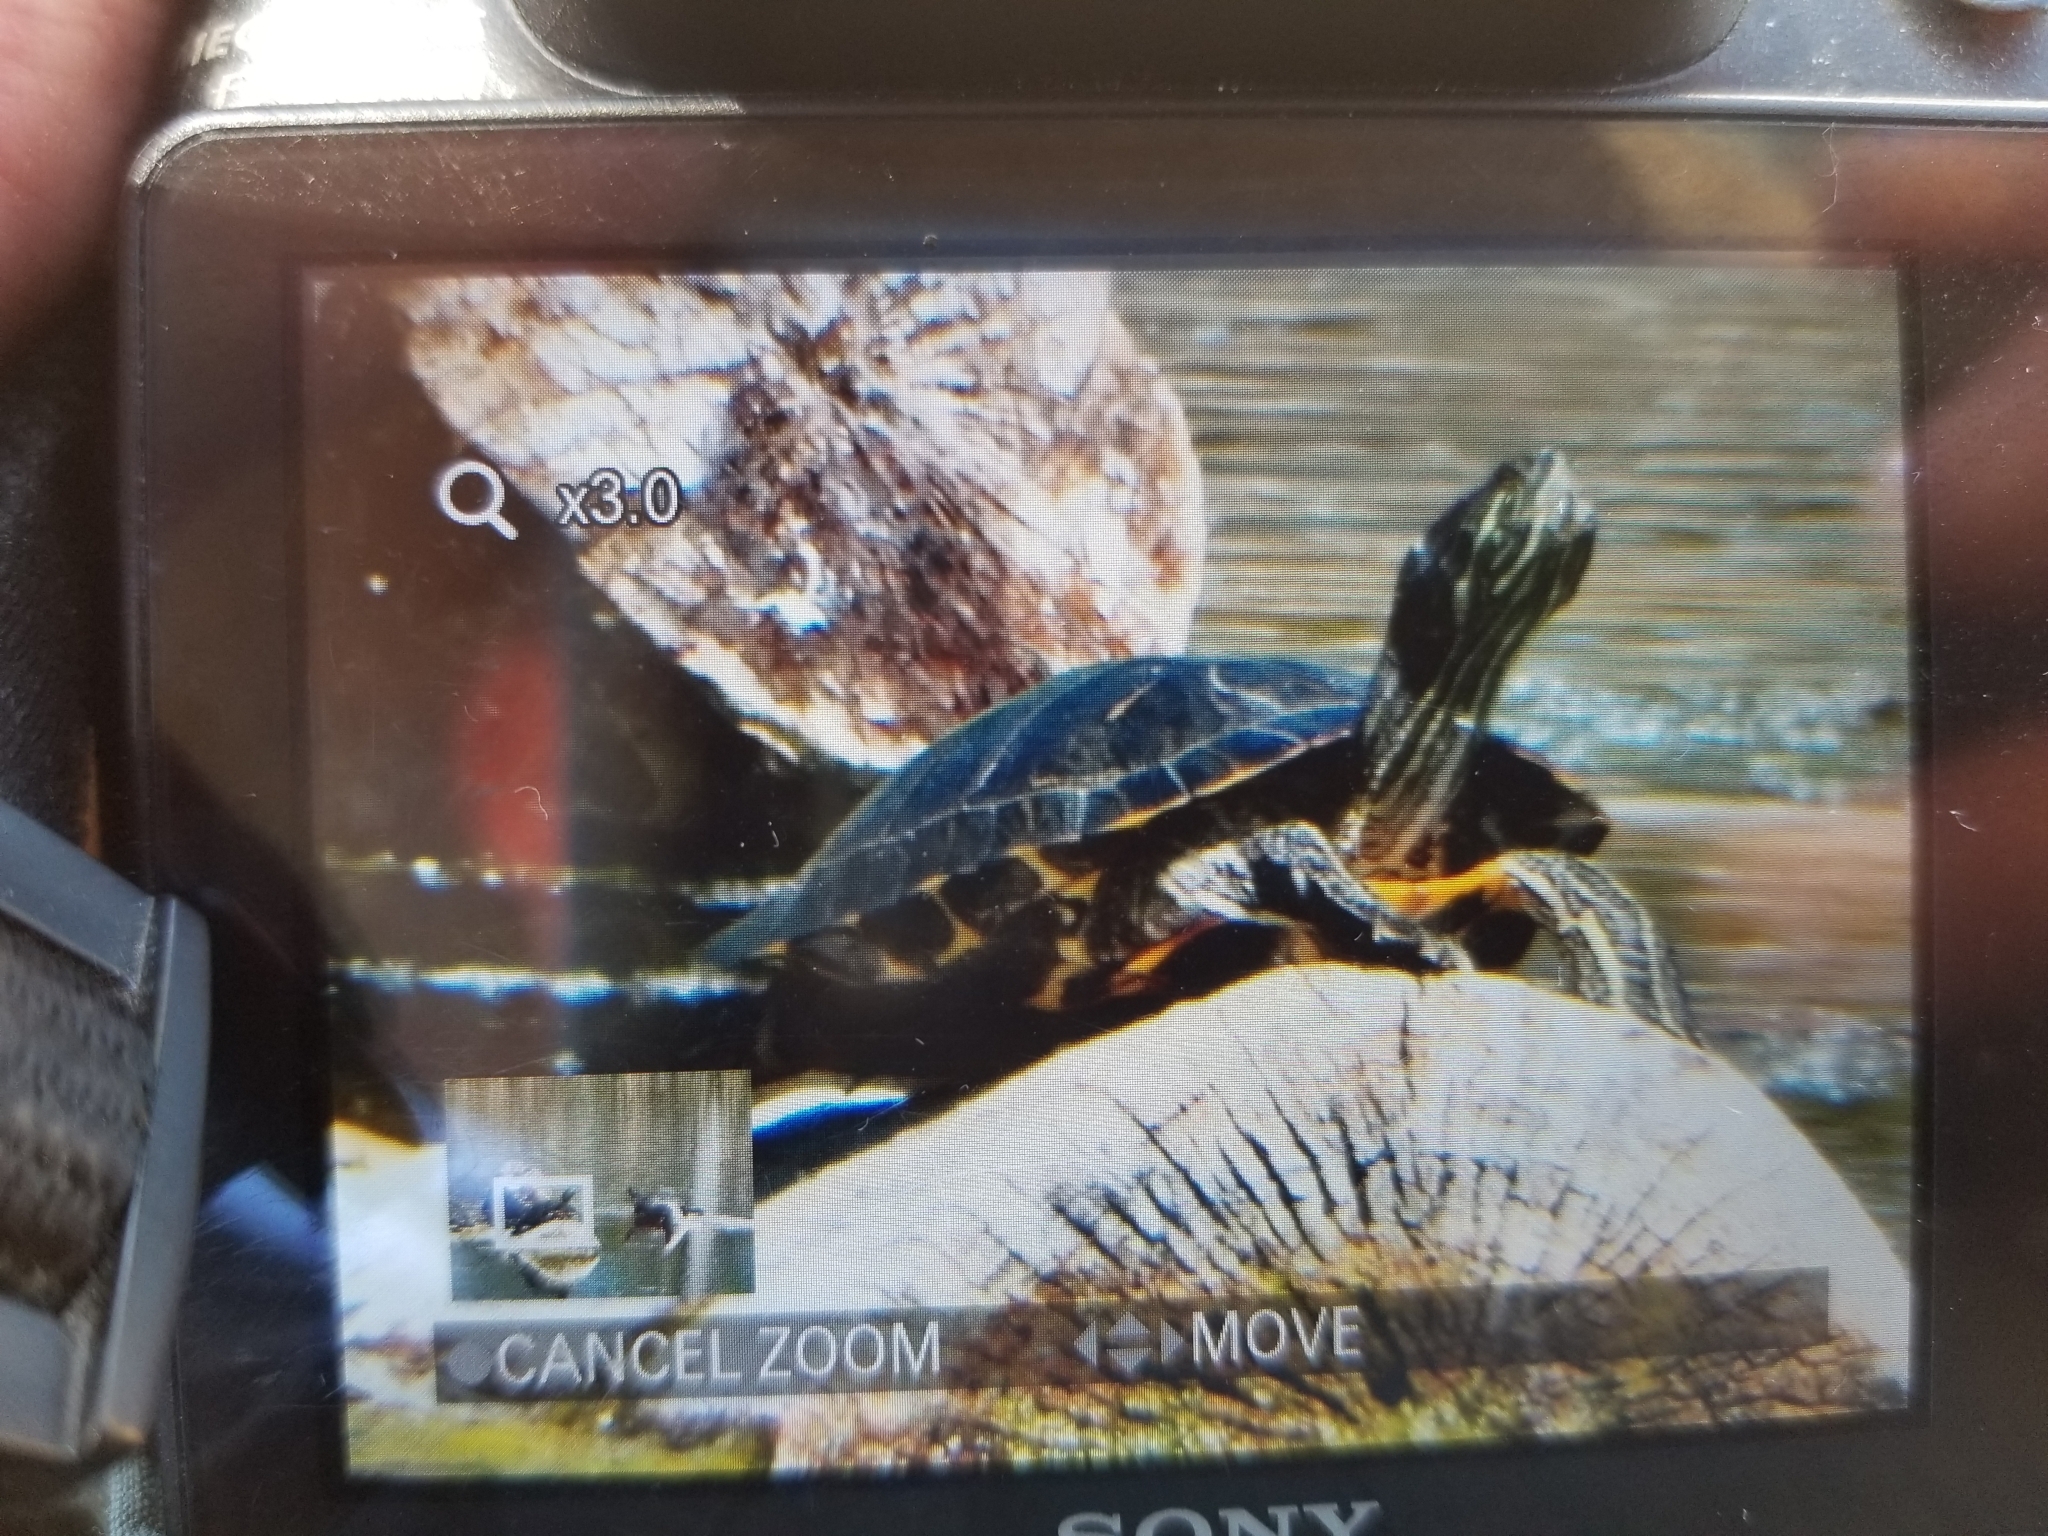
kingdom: Animalia
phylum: Chordata
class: Testudines
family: Emydidae
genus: Trachemys
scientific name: Trachemys scripta
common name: Slider
